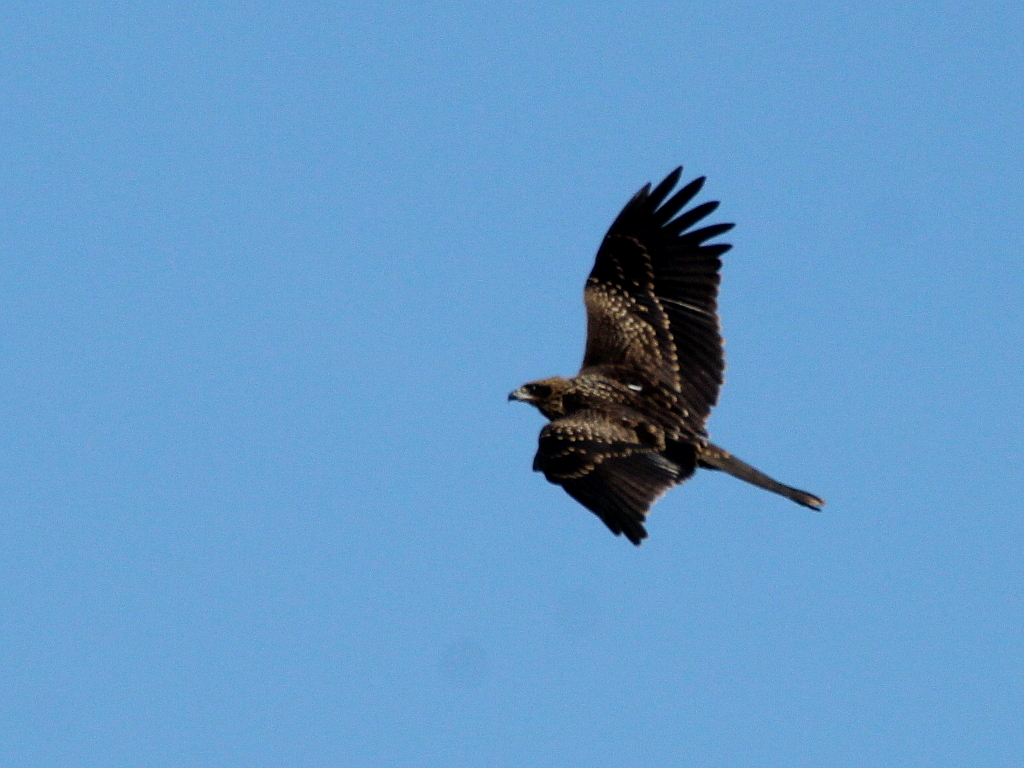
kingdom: Animalia
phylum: Chordata
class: Aves
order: Accipitriformes
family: Accipitridae
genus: Milvus
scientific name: Milvus migrans
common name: Black kite
